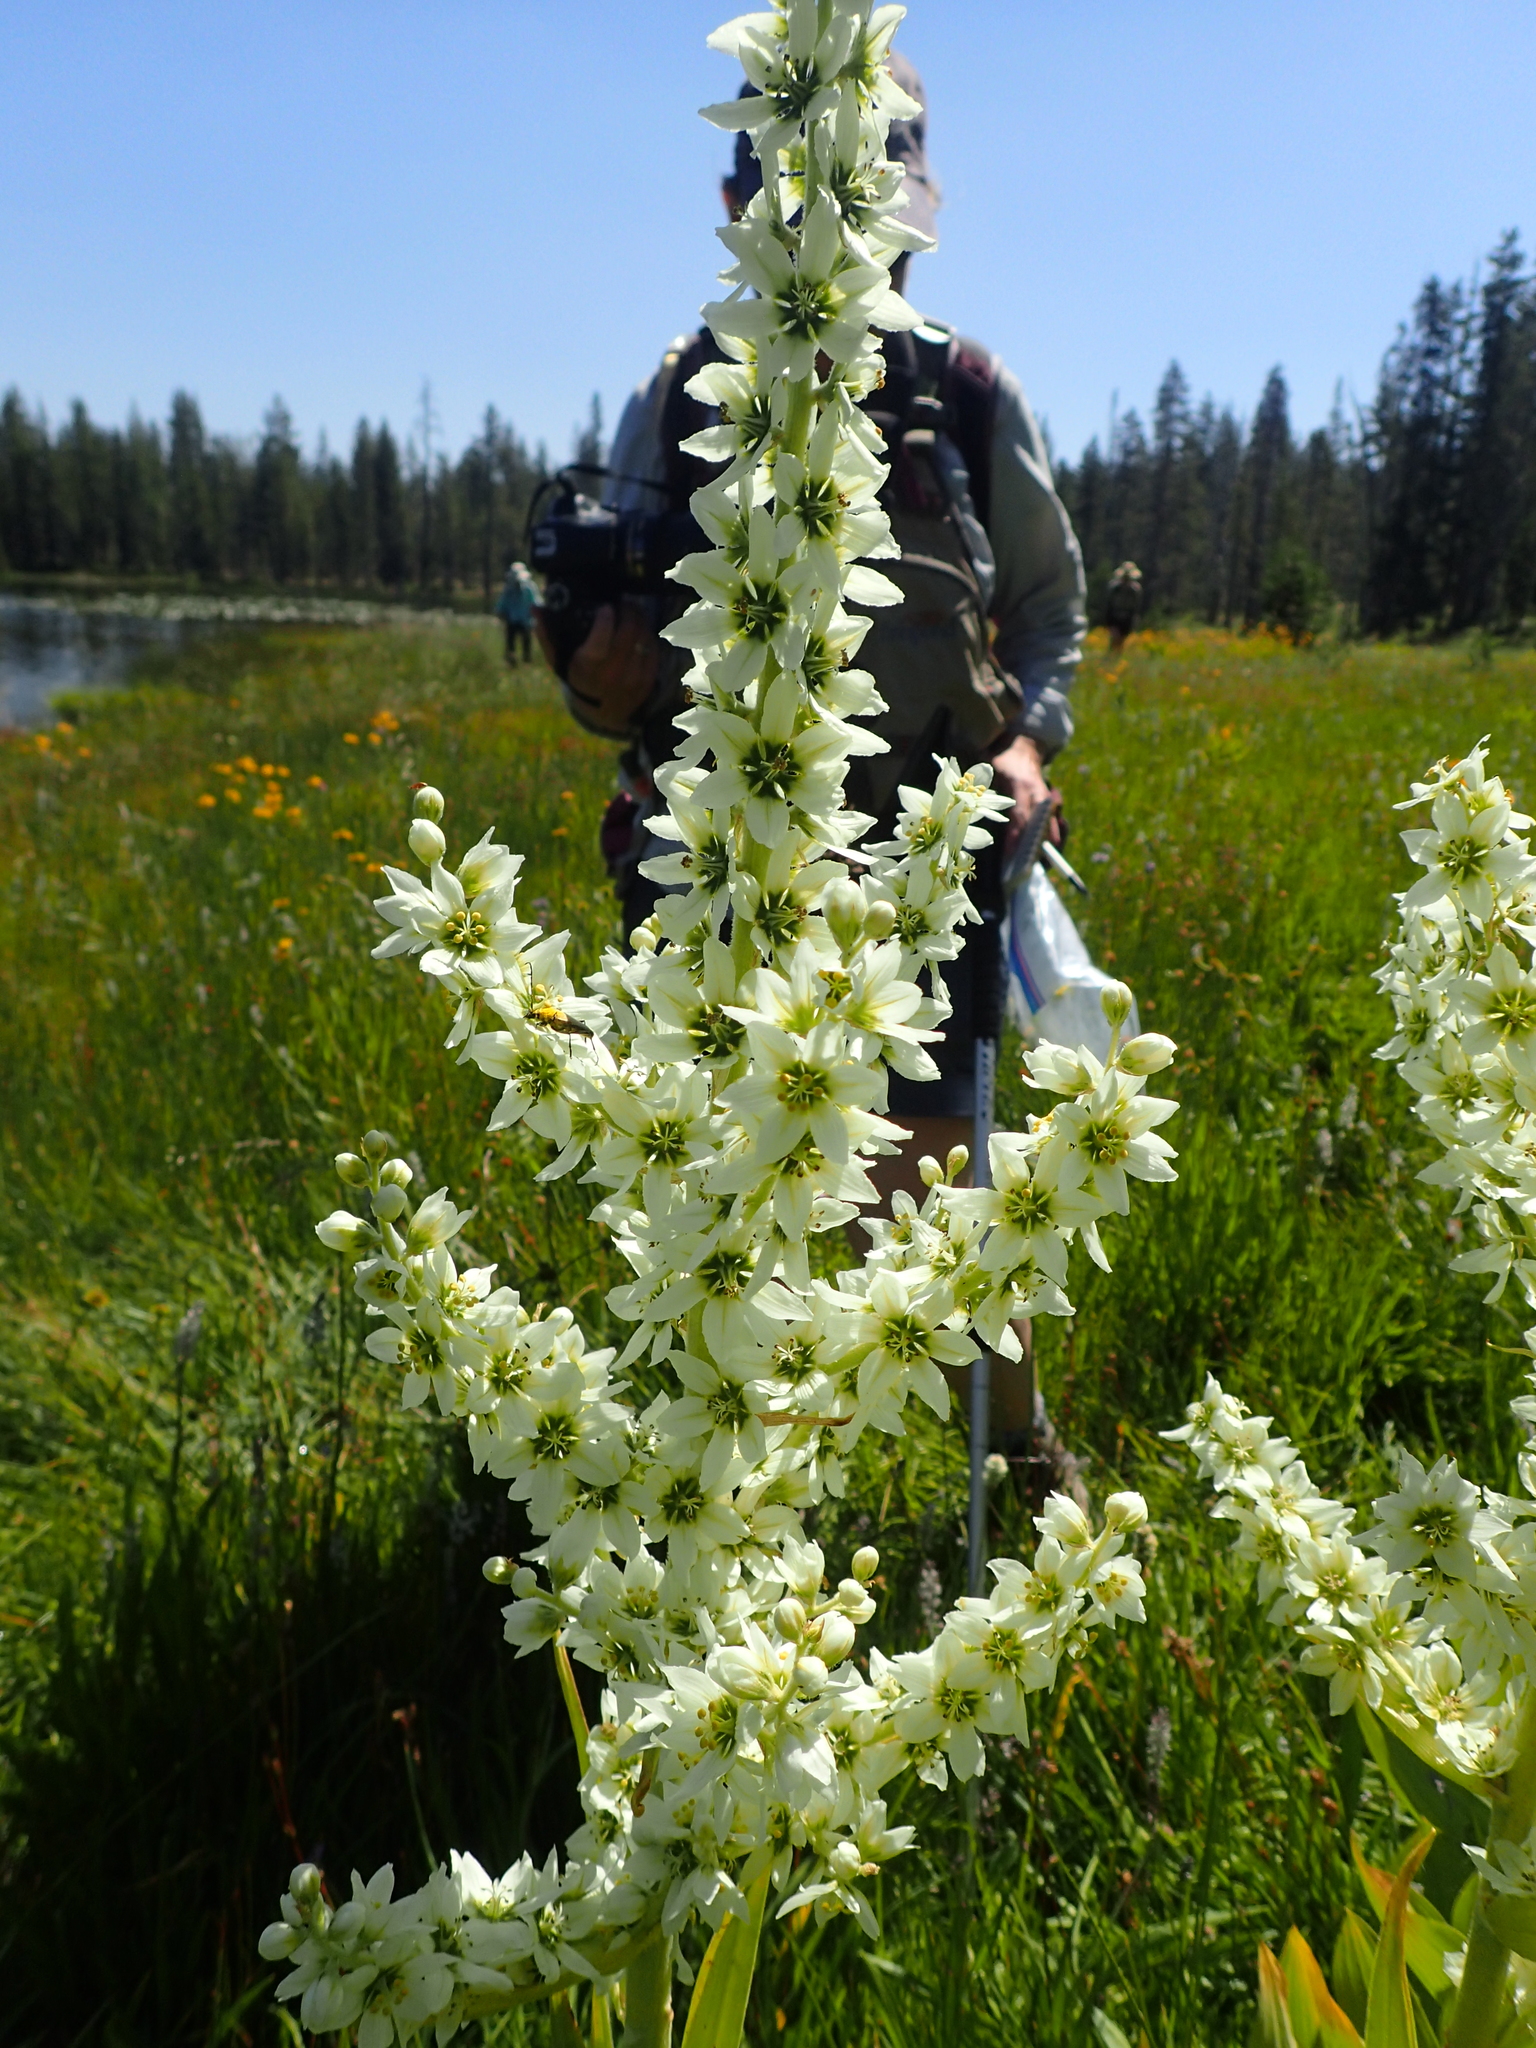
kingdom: Plantae
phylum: Tracheophyta
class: Liliopsida
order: Liliales
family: Melanthiaceae
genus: Veratrum
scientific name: Veratrum californicum
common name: California veratrum
